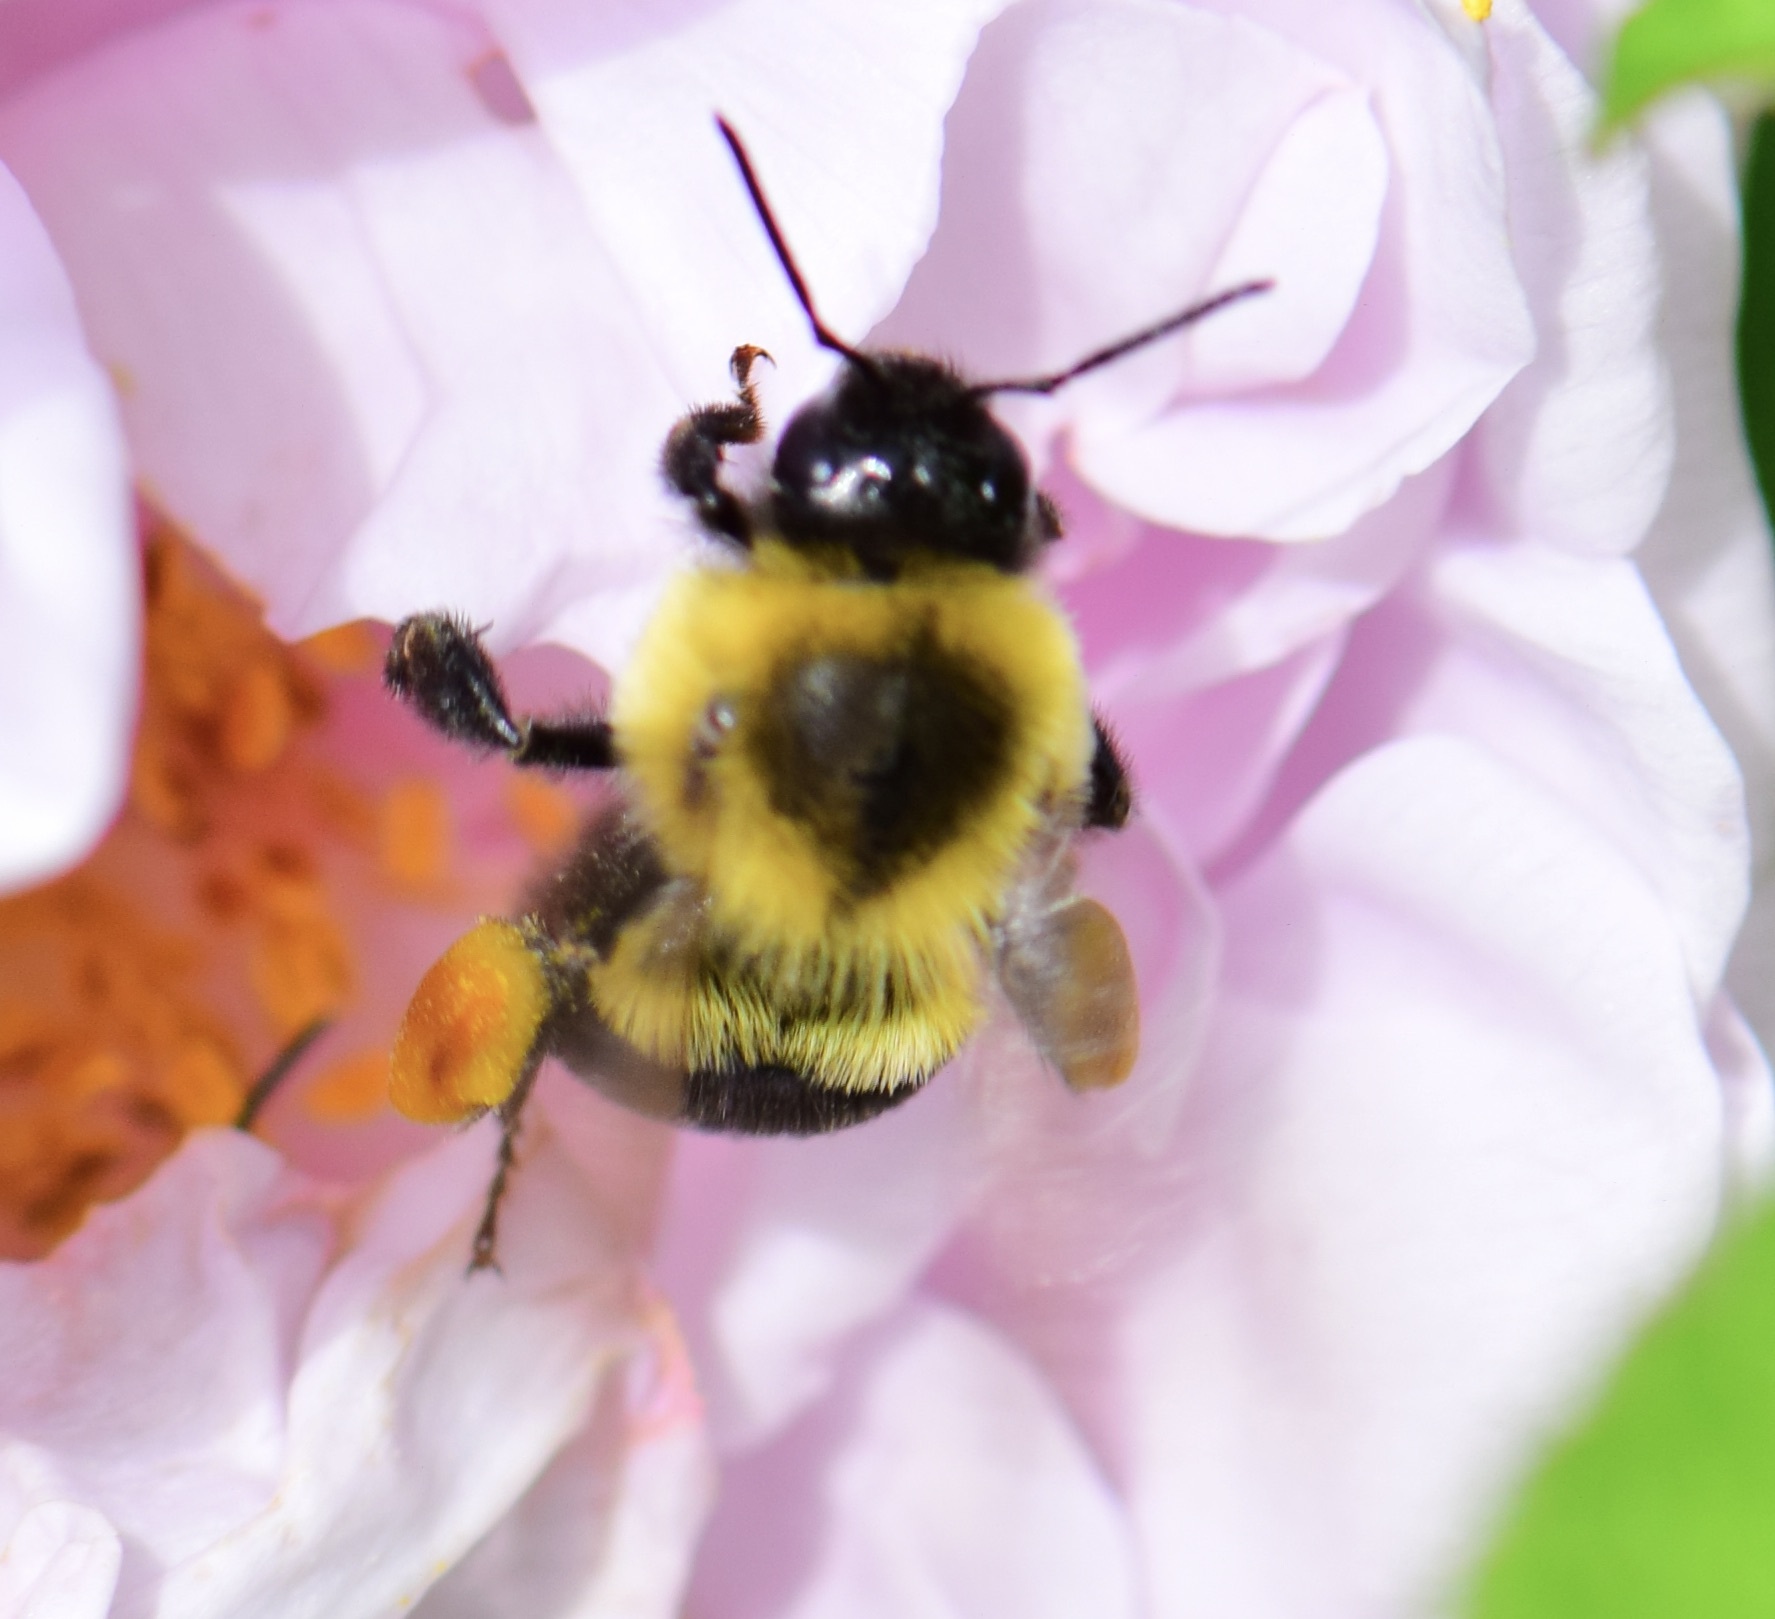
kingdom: Animalia
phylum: Arthropoda
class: Insecta
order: Hymenoptera
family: Apidae
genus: Bombus
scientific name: Bombus impatiens
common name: Common eastern bumble bee
